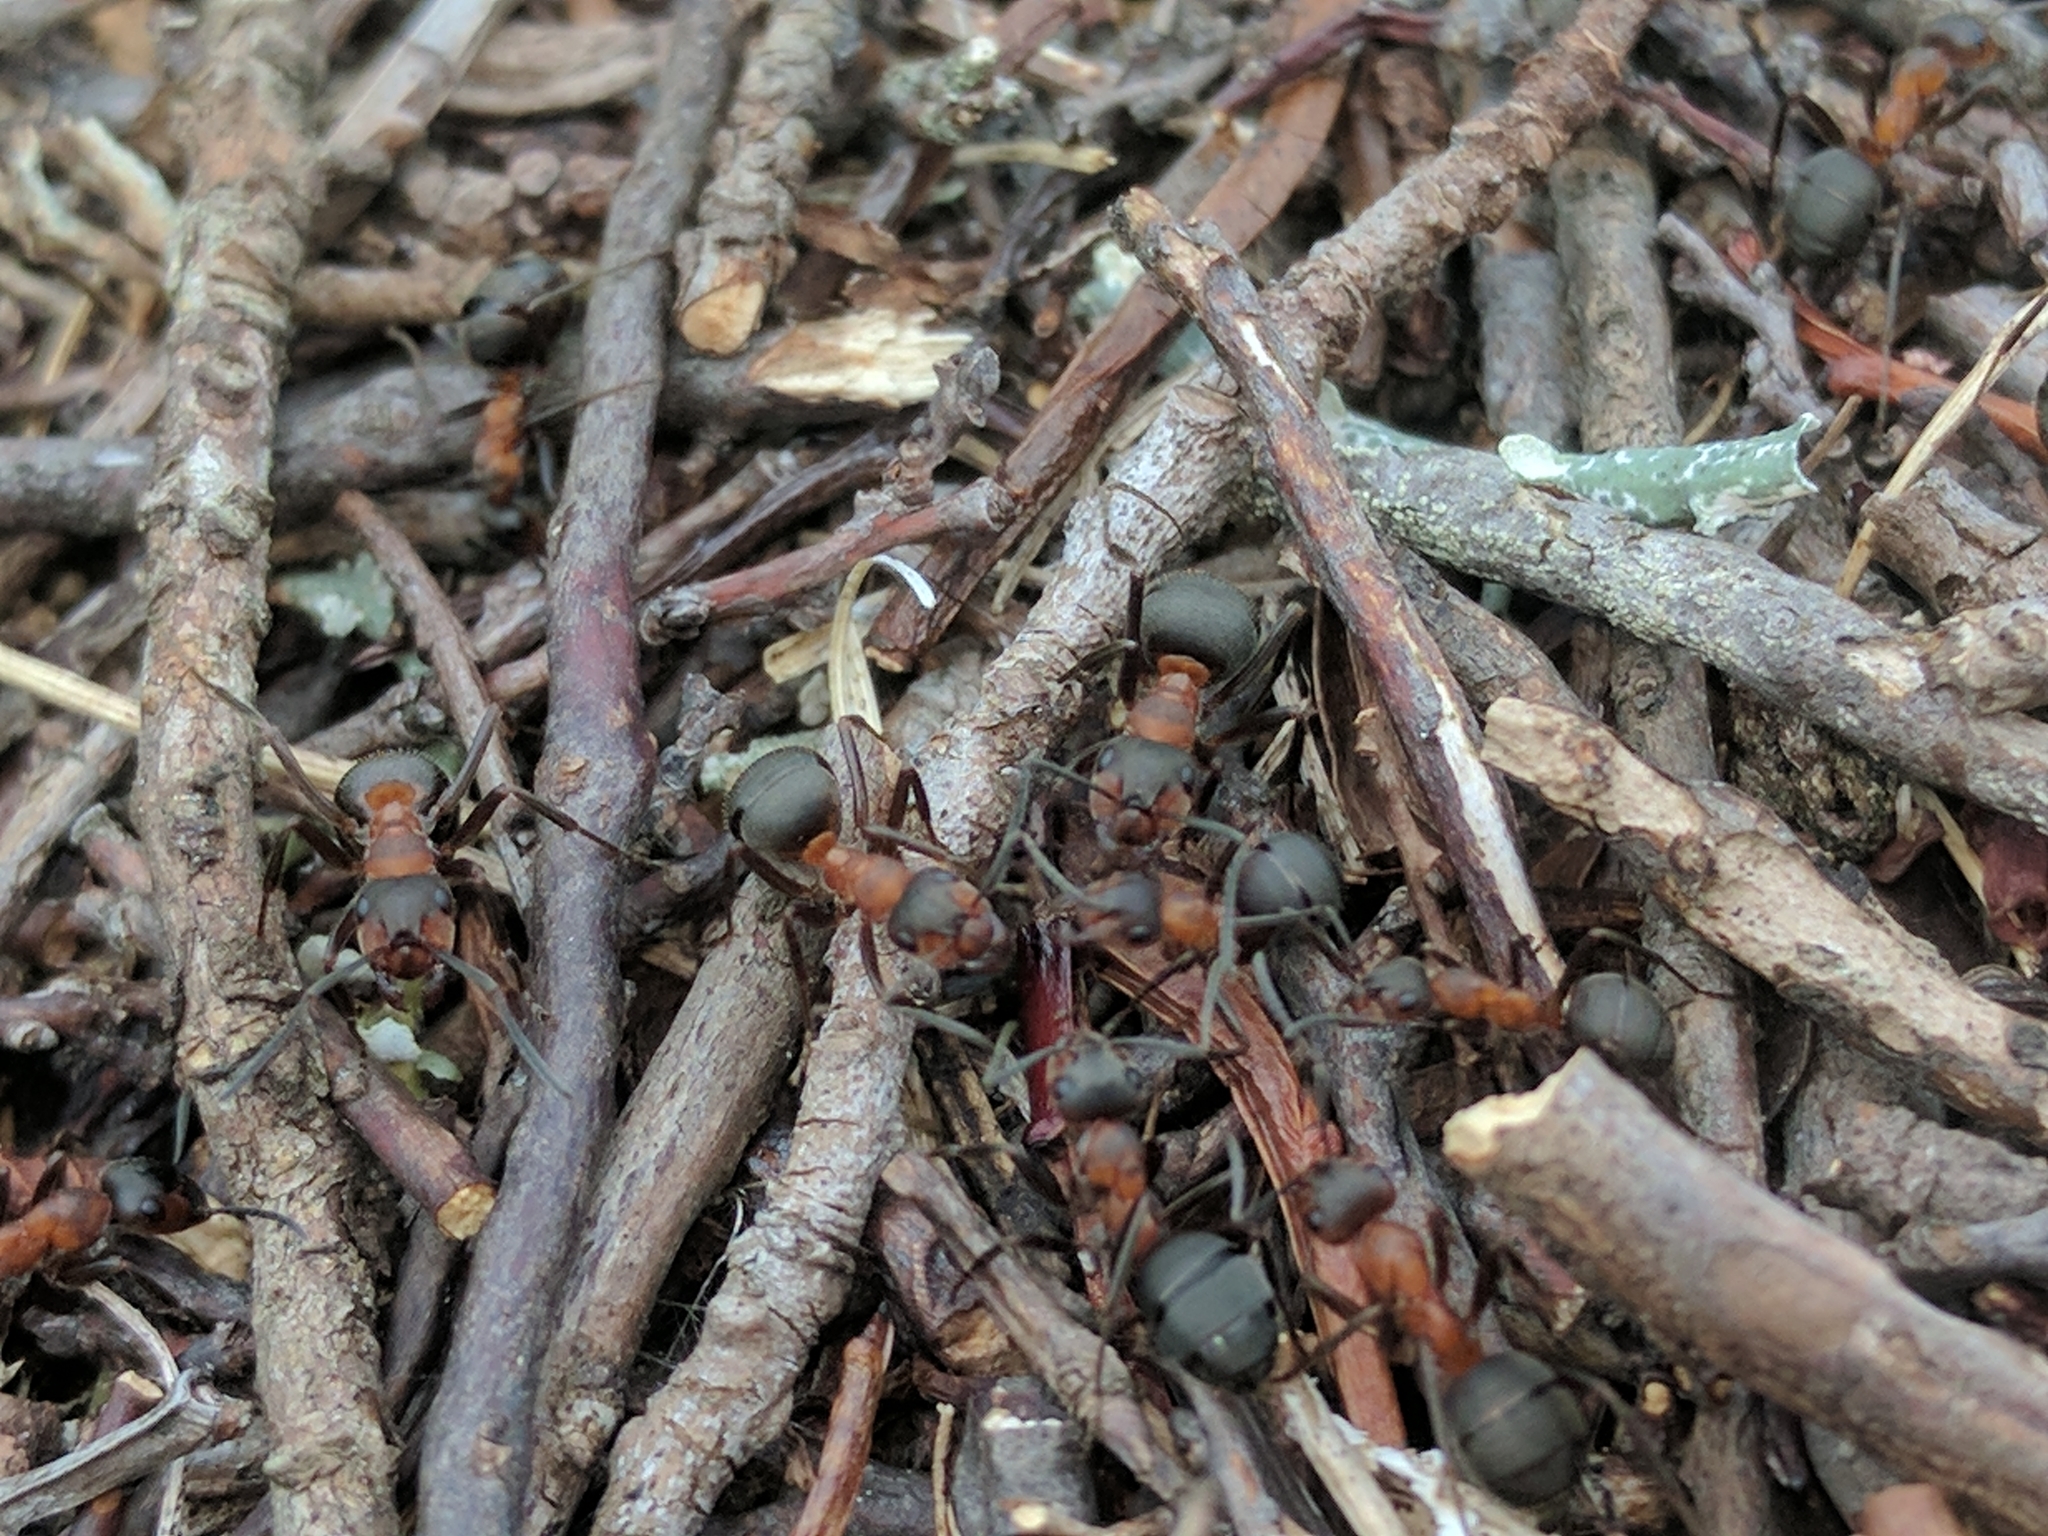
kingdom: Animalia
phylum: Arthropoda
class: Insecta
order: Hymenoptera
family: Formicidae
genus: Formica
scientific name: Formica lugubris
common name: Sinister mound ant
